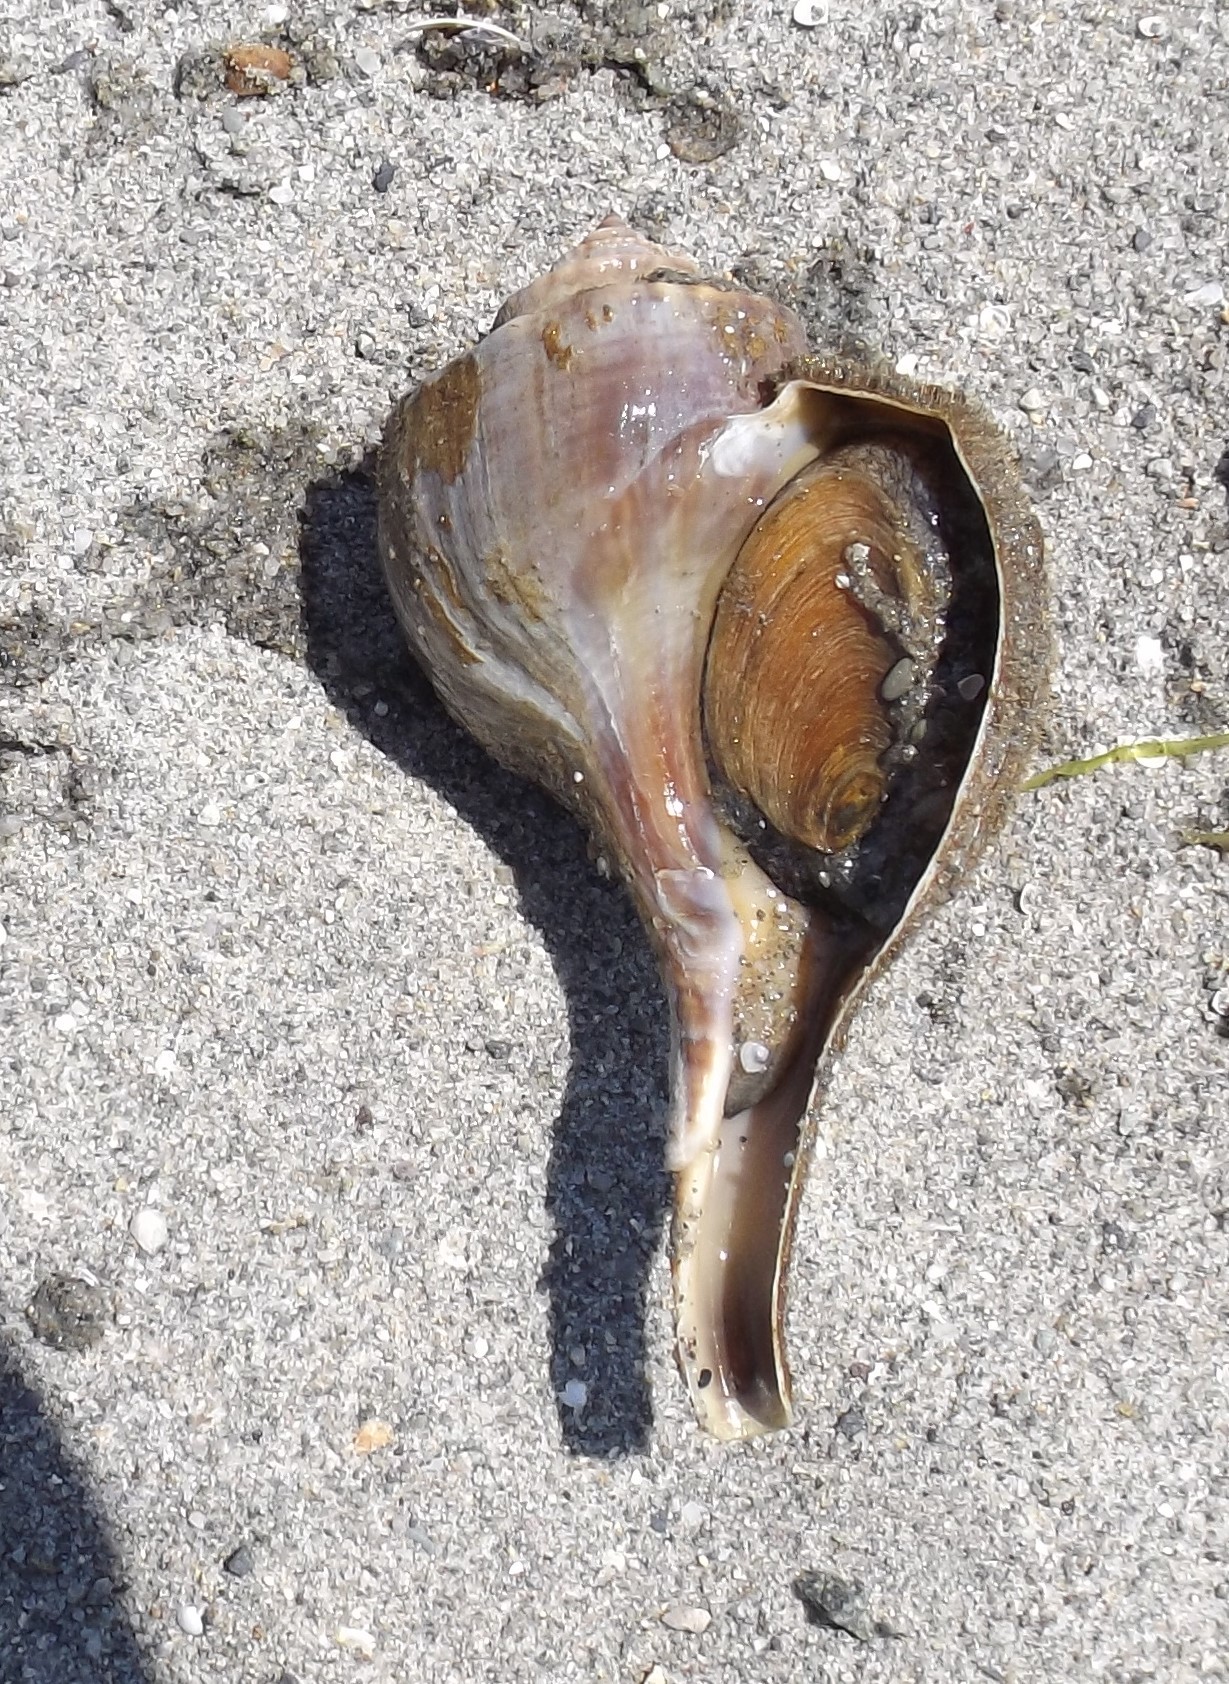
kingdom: Animalia
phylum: Mollusca
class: Gastropoda
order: Neogastropoda
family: Busyconidae
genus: Busycotypus
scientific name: Busycotypus canaliculatus
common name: Channeled whelk
